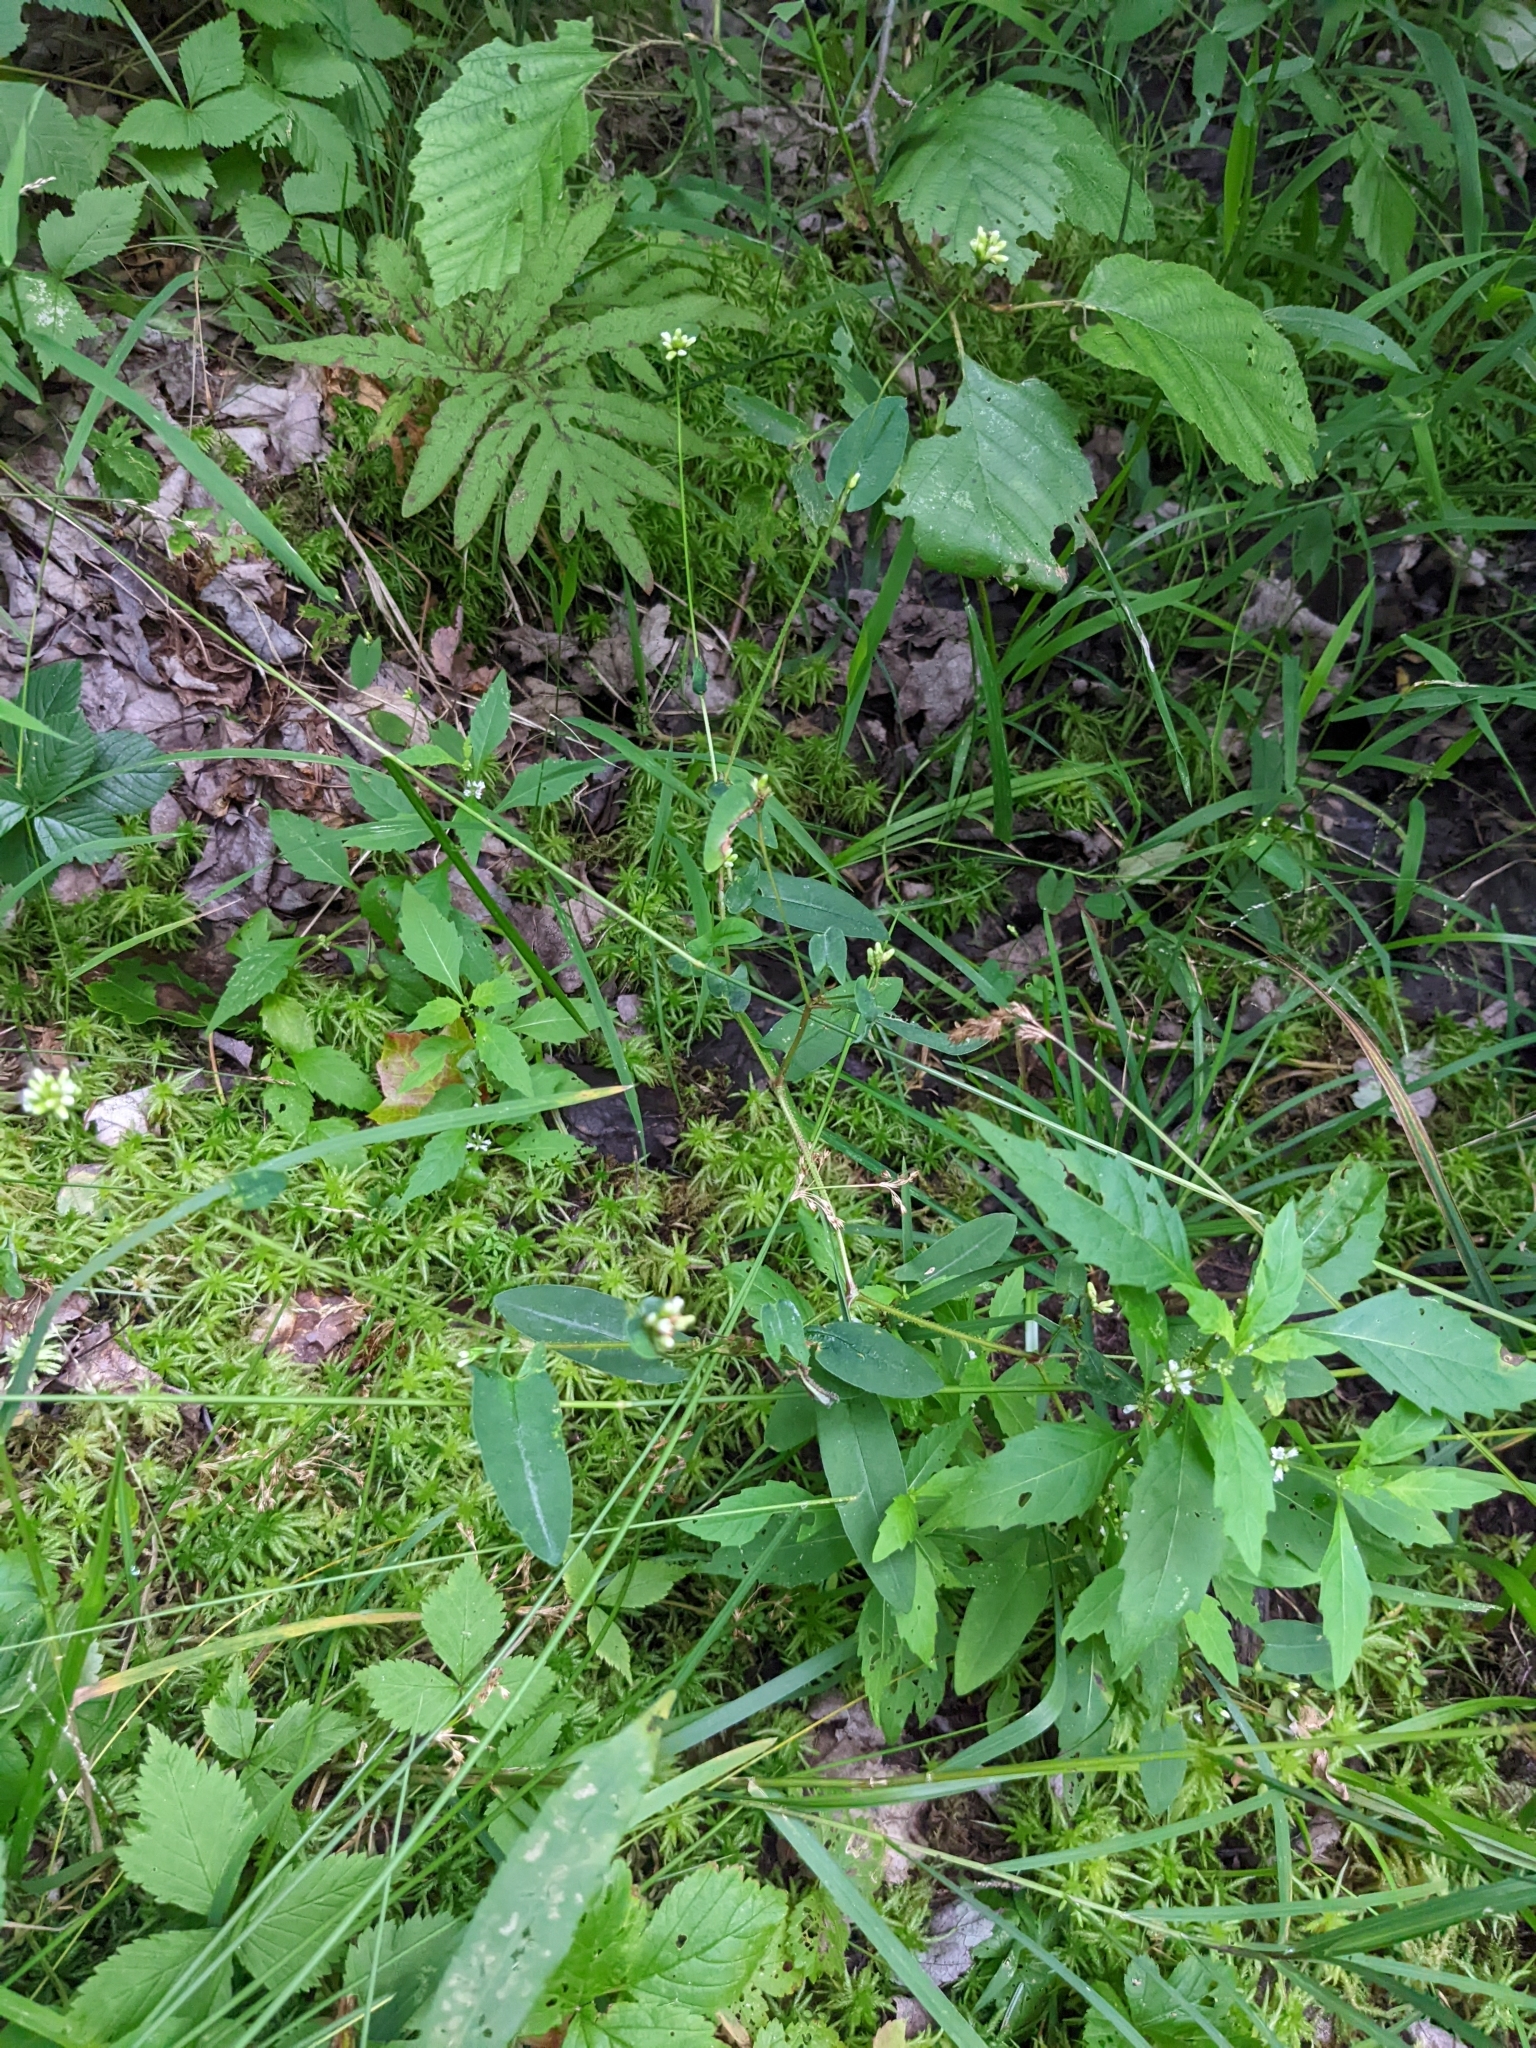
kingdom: Plantae
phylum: Tracheophyta
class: Magnoliopsida
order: Caryophyllales
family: Polygonaceae
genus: Persicaria
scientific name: Persicaria sagittata
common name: American tearthumb
